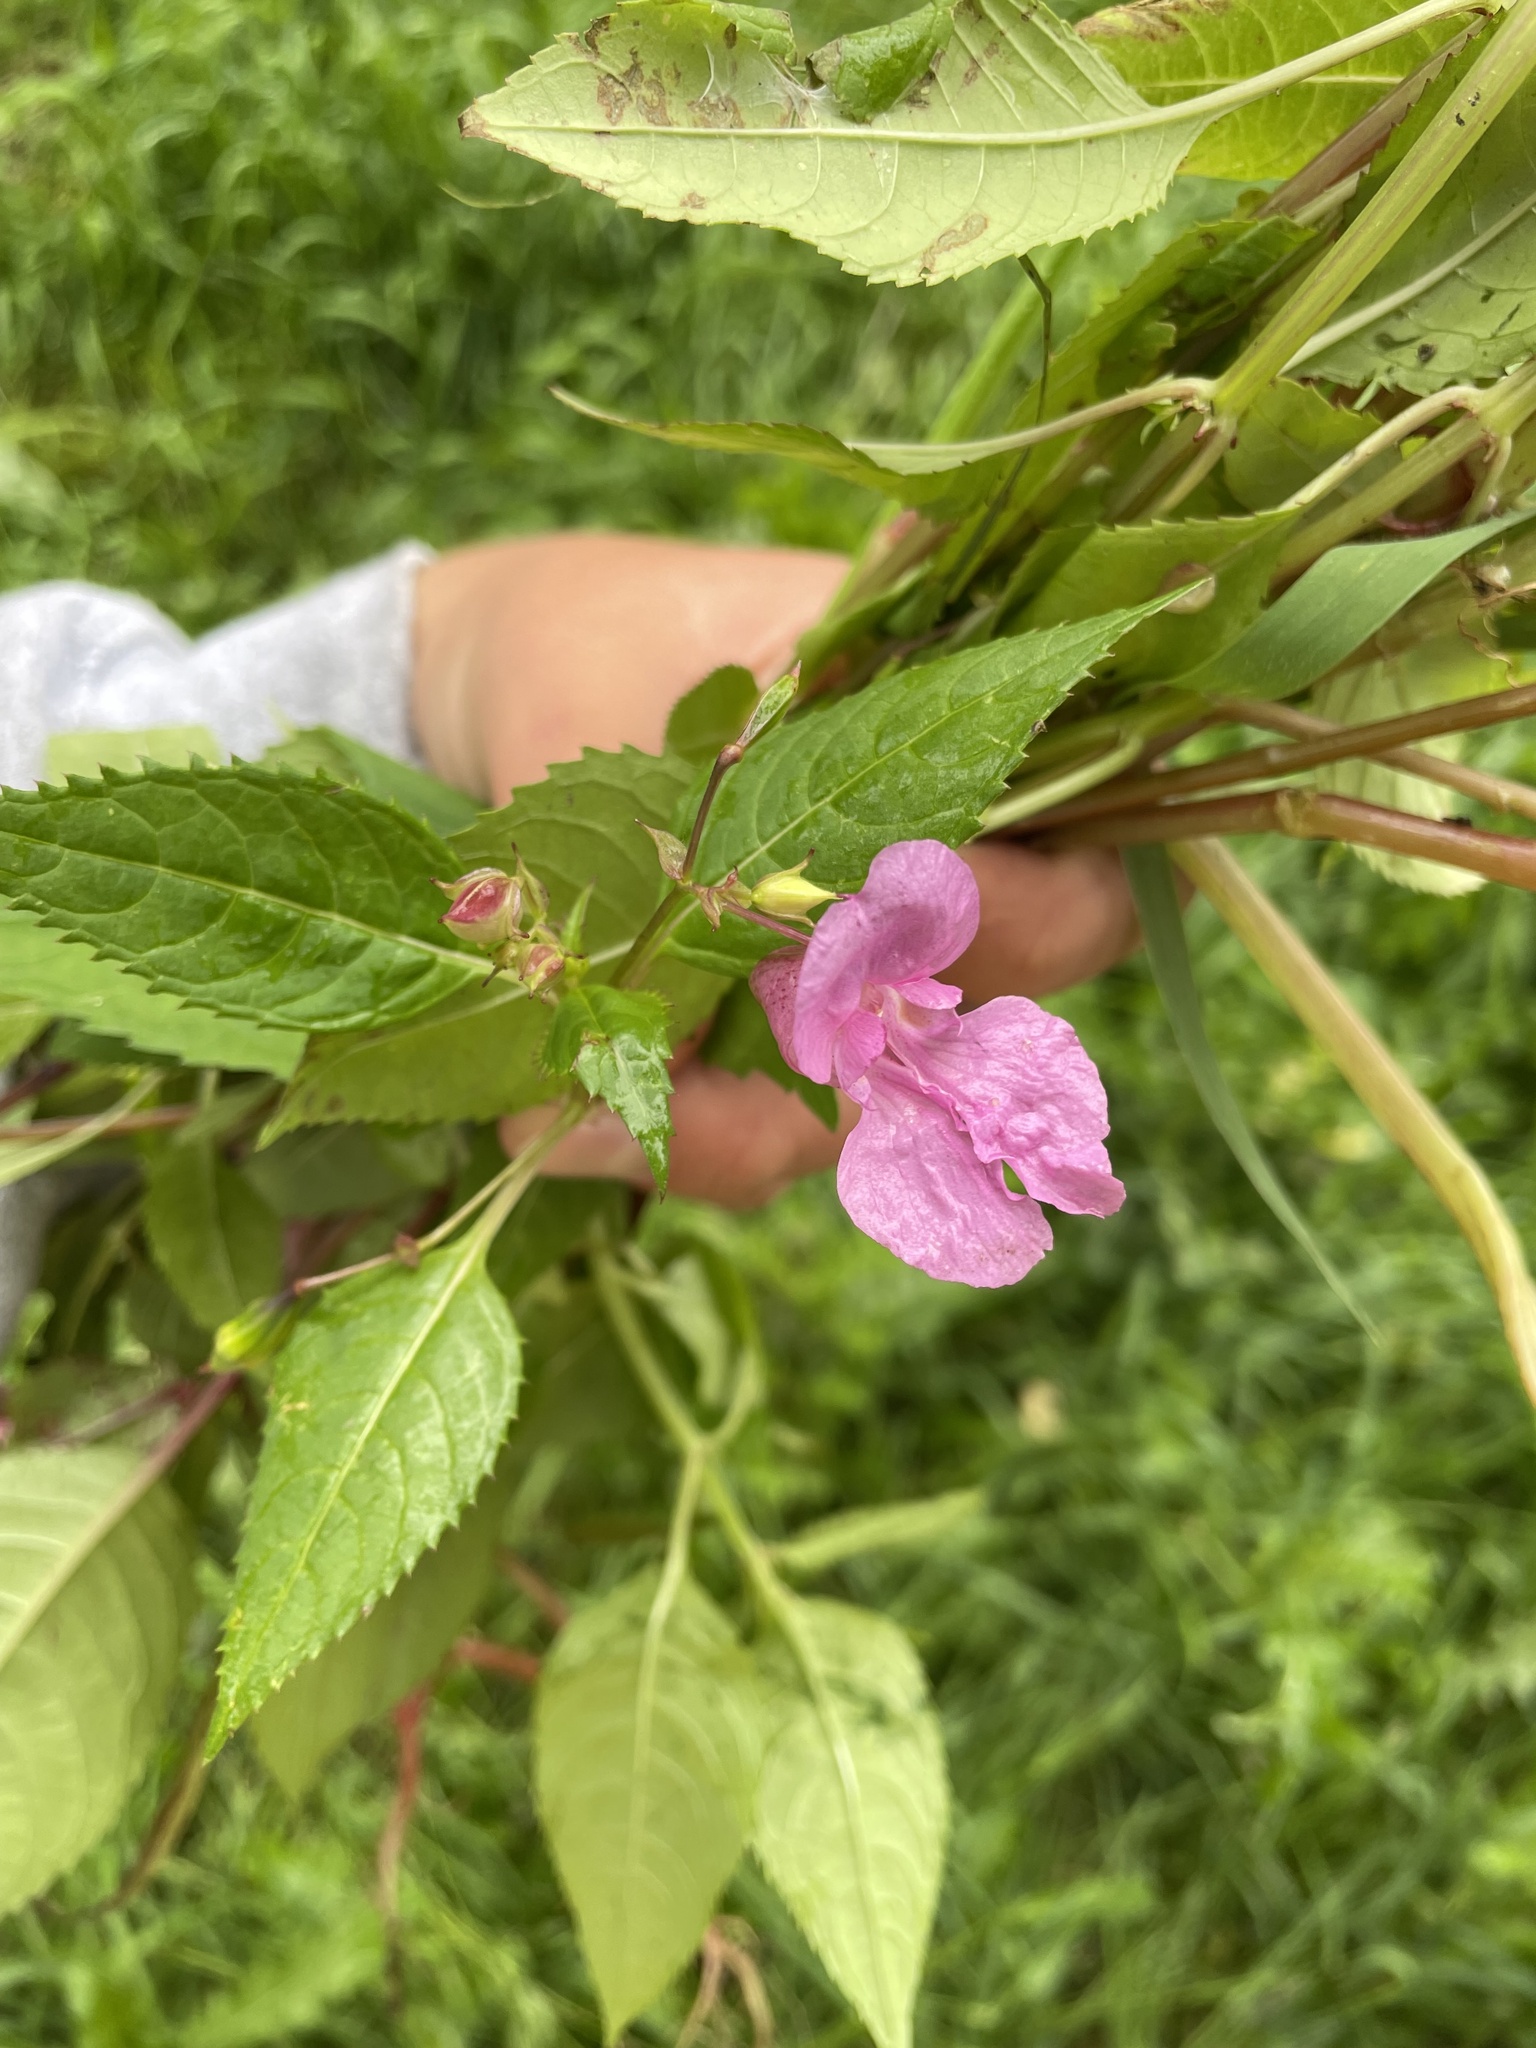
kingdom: Plantae
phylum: Tracheophyta
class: Magnoliopsida
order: Ericales
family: Balsaminaceae
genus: Impatiens
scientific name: Impatiens glandulifera
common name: Himalayan balsam
